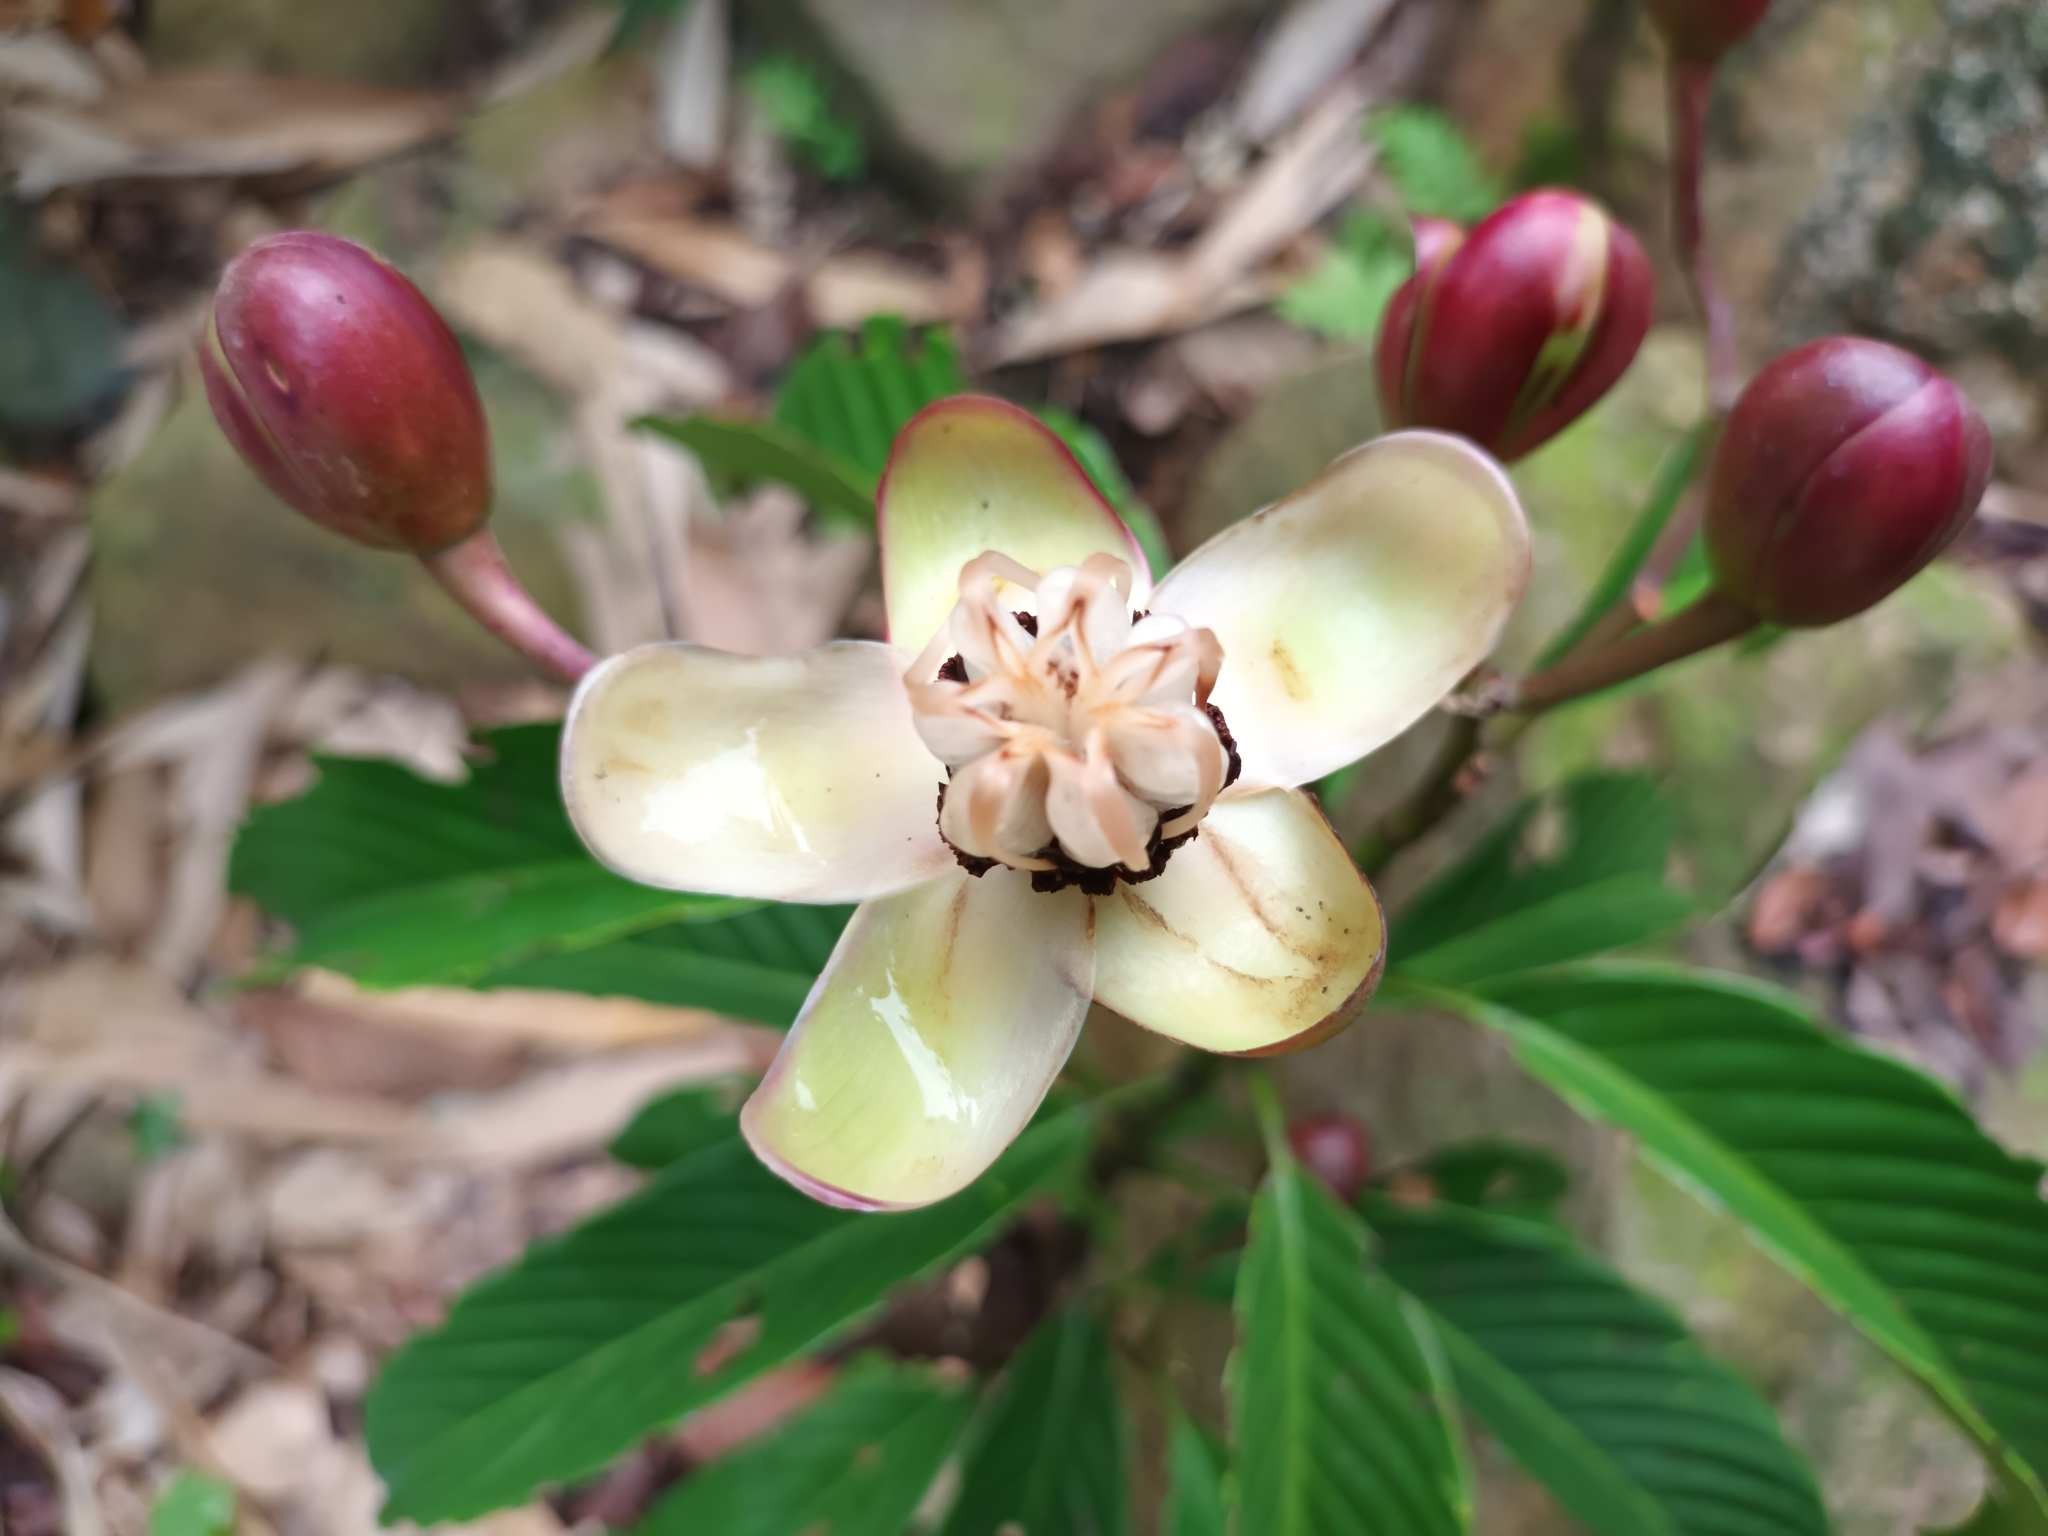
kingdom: Plantae
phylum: Tracheophyta
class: Magnoliopsida
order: Dilleniales
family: Dilleniaceae
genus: Dillenia
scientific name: Dillenia excelsa
